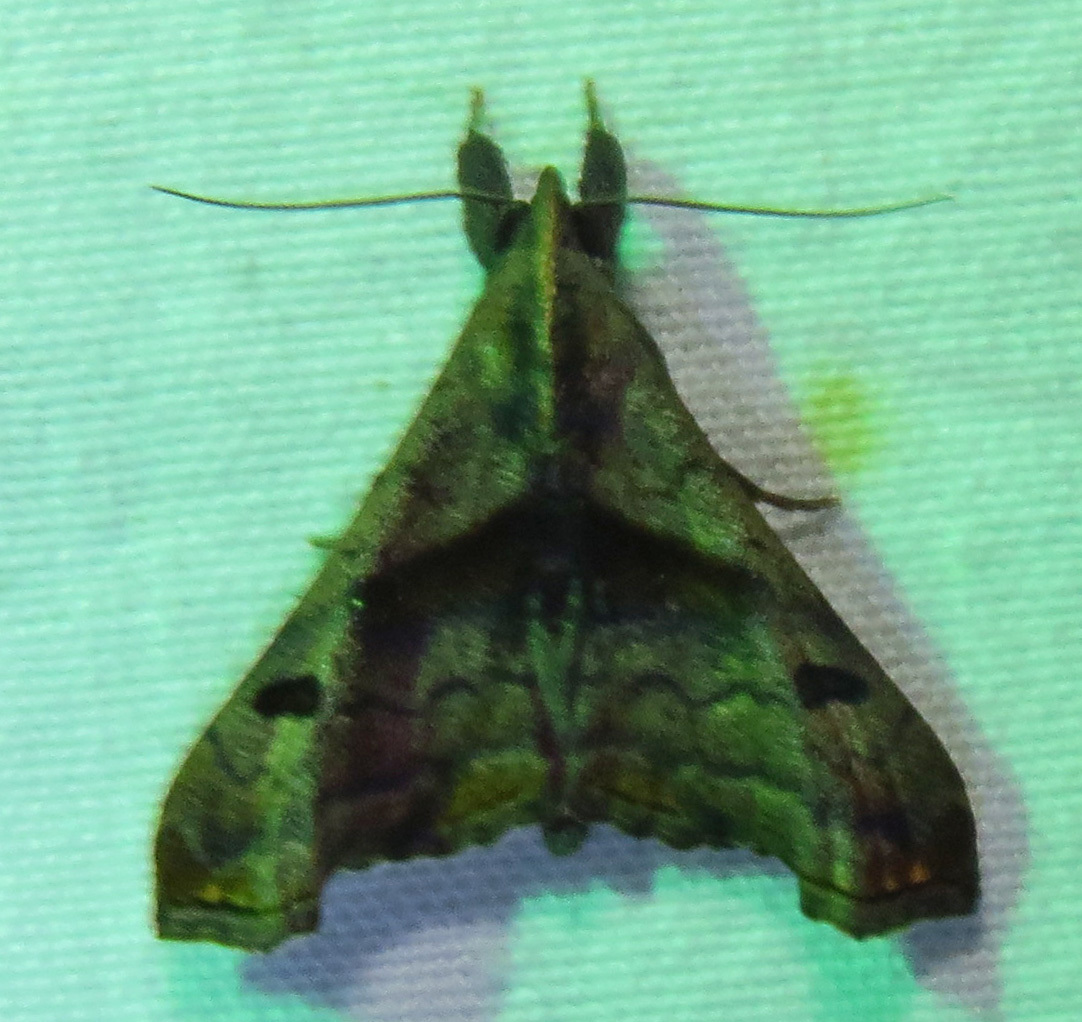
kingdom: Animalia
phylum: Arthropoda
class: Insecta
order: Lepidoptera
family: Erebidae
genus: Palthis
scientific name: Palthis angulalis
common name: Dark-spotted palthis moth
